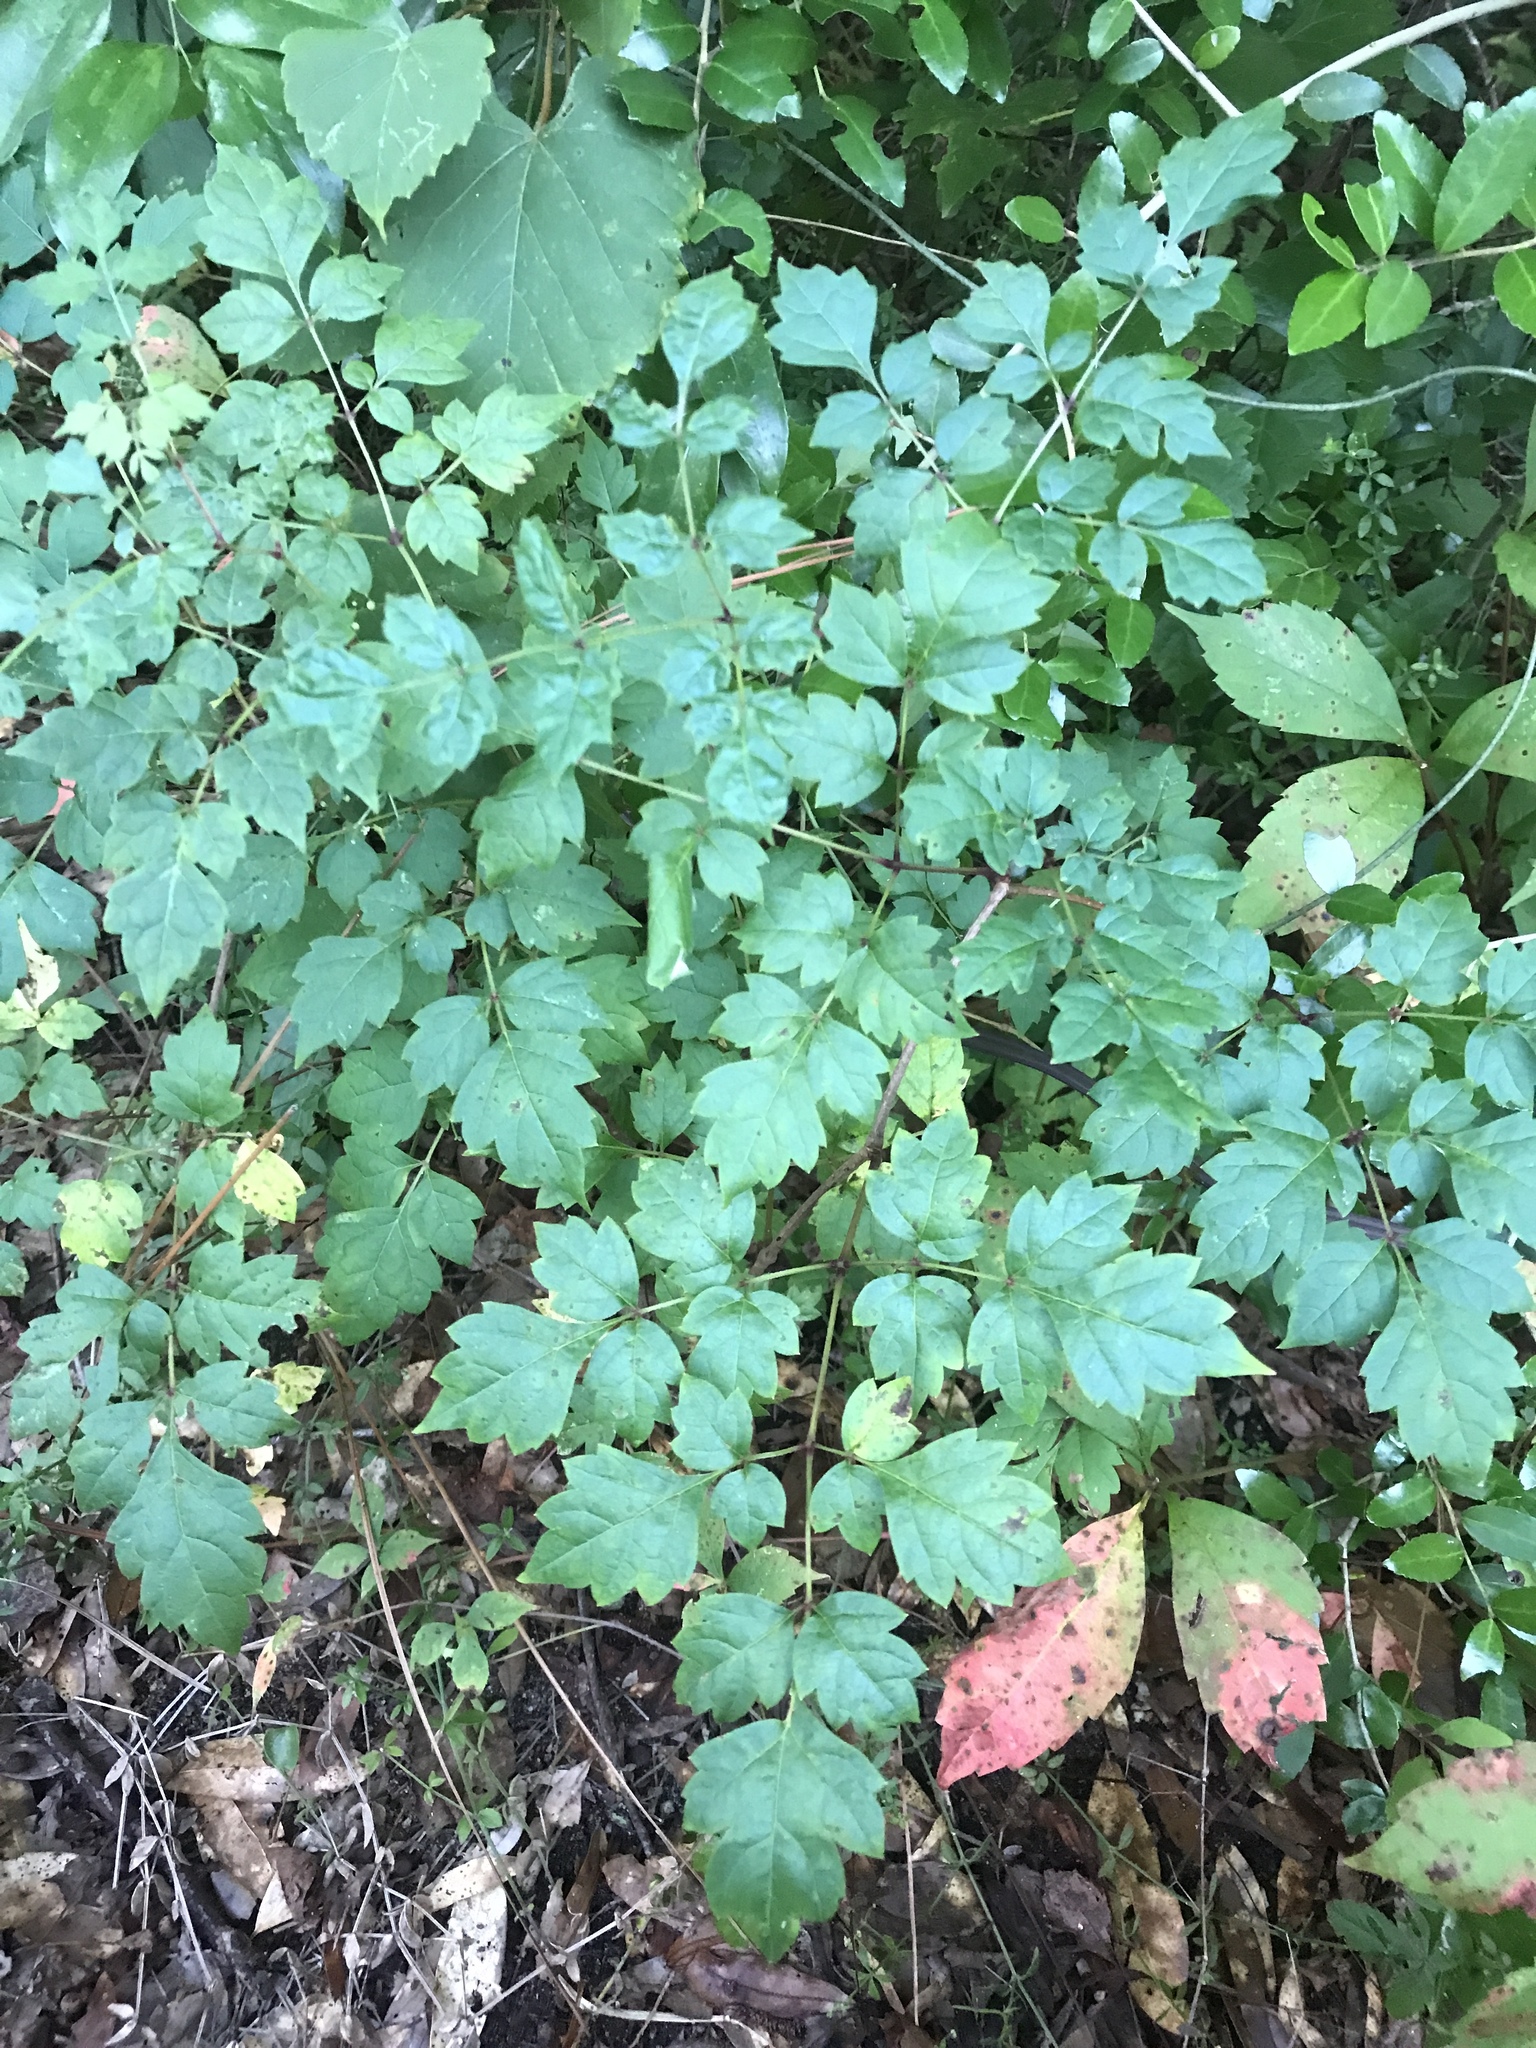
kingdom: Plantae
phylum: Tracheophyta
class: Magnoliopsida
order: Vitales
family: Vitaceae
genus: Nekemias
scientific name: Nekemias arborea
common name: Peppervine
